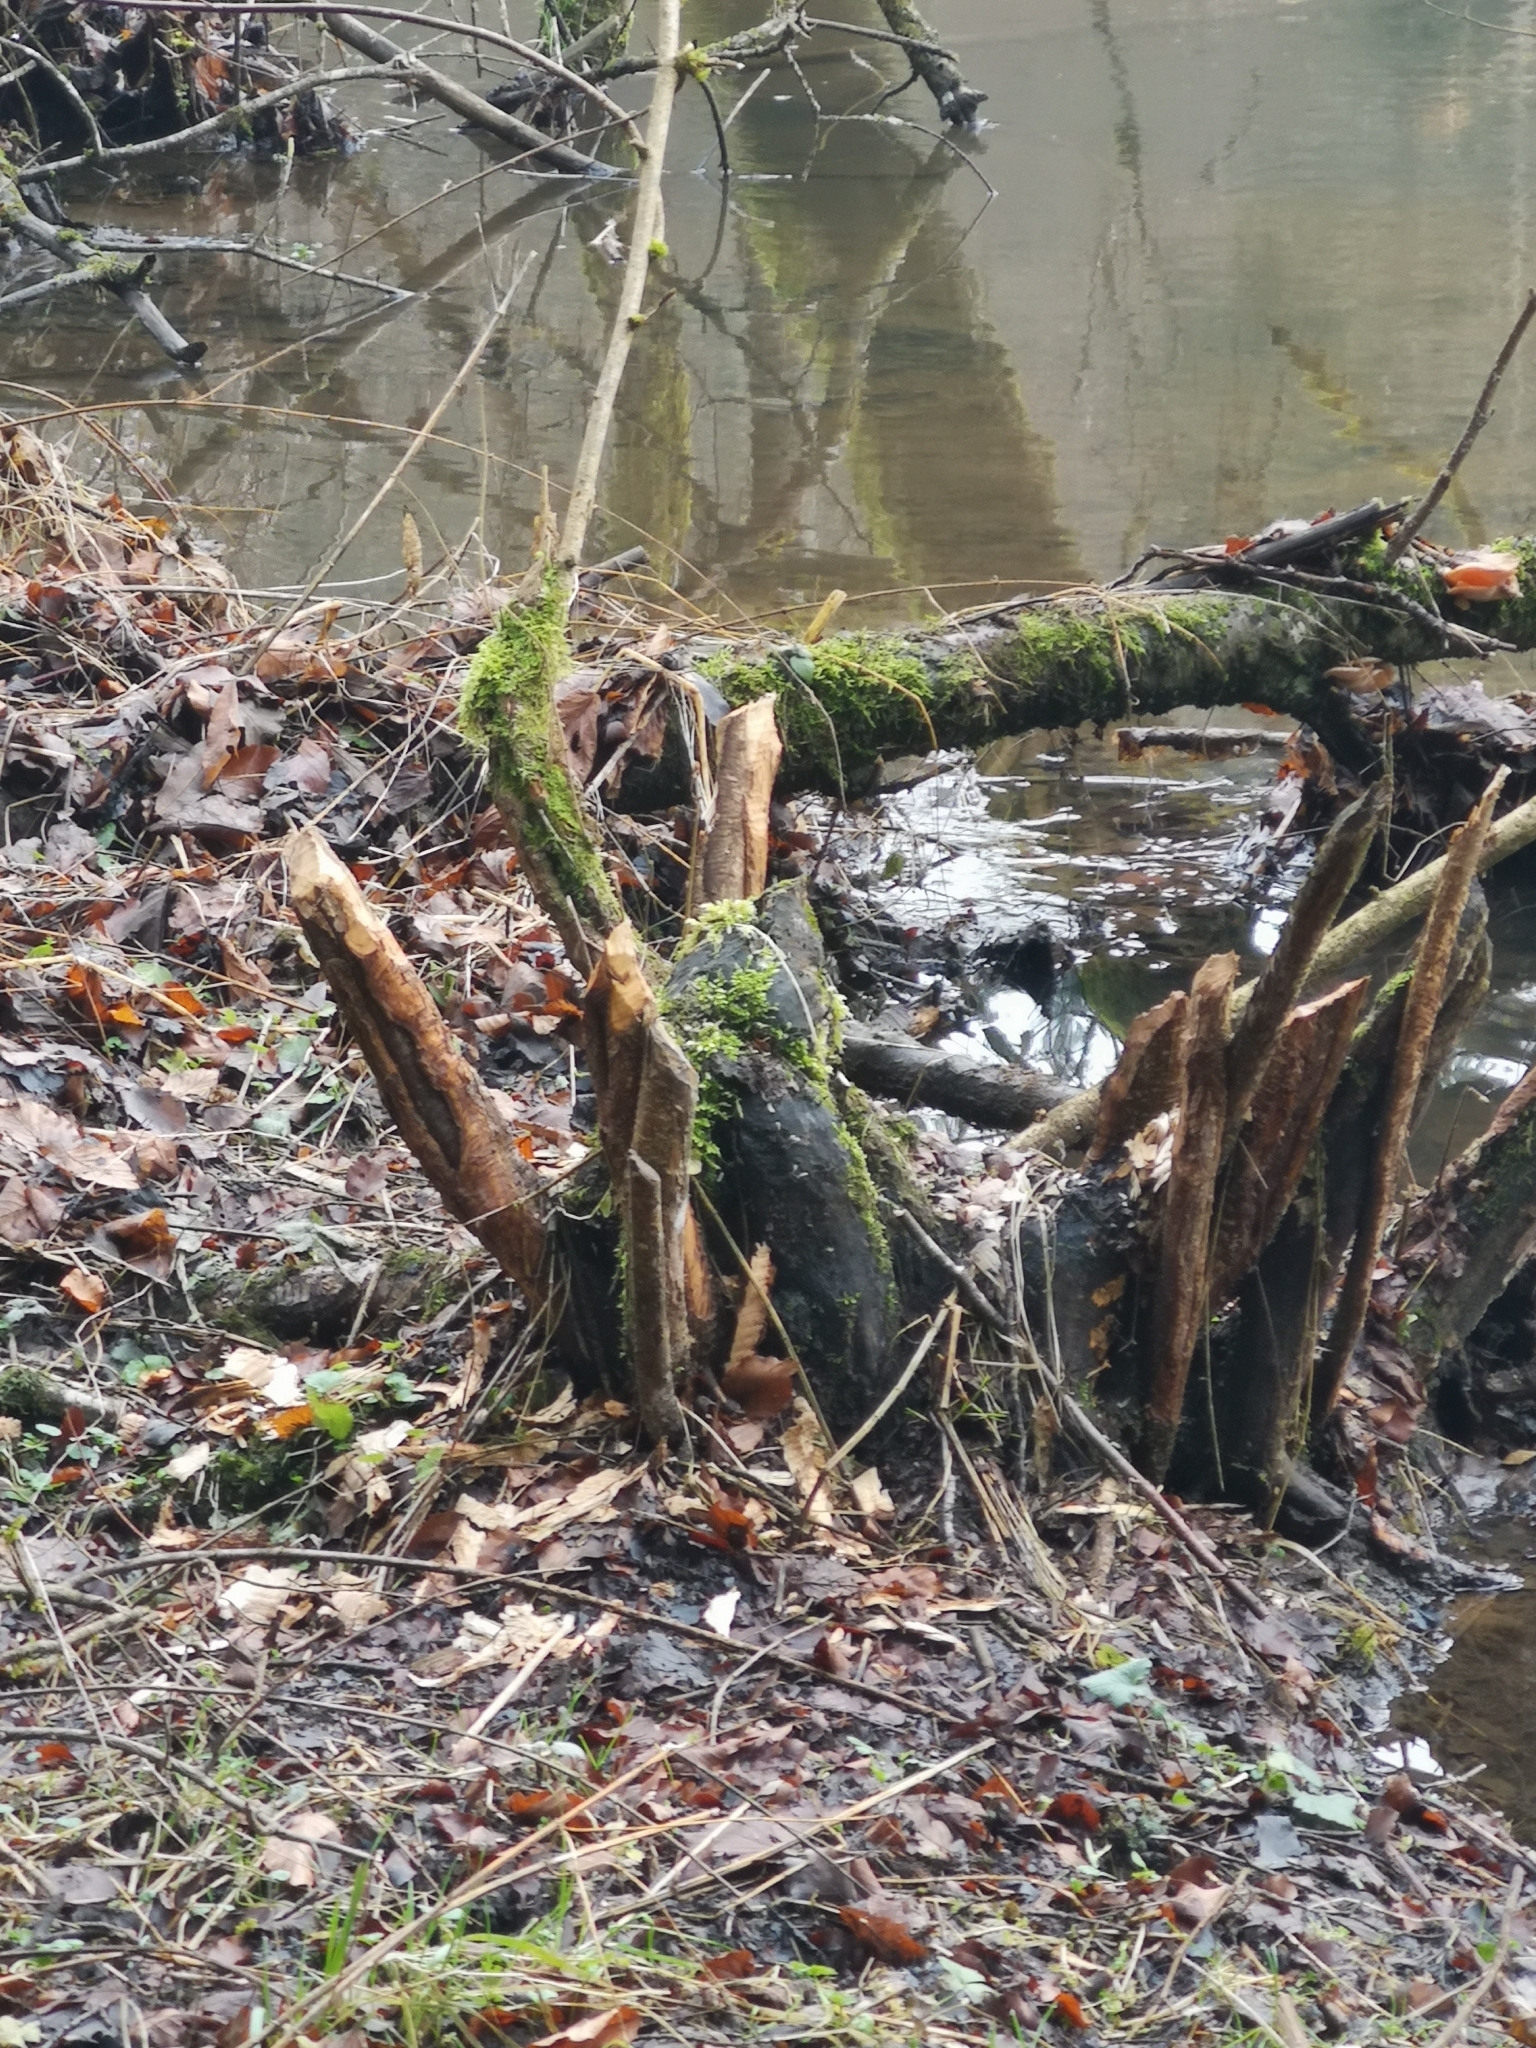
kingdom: Animalia
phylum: Chordata
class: Mammalia
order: Rodentia
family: Castoridae
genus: Castor
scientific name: Castor fiber
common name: Eurasian beaver
